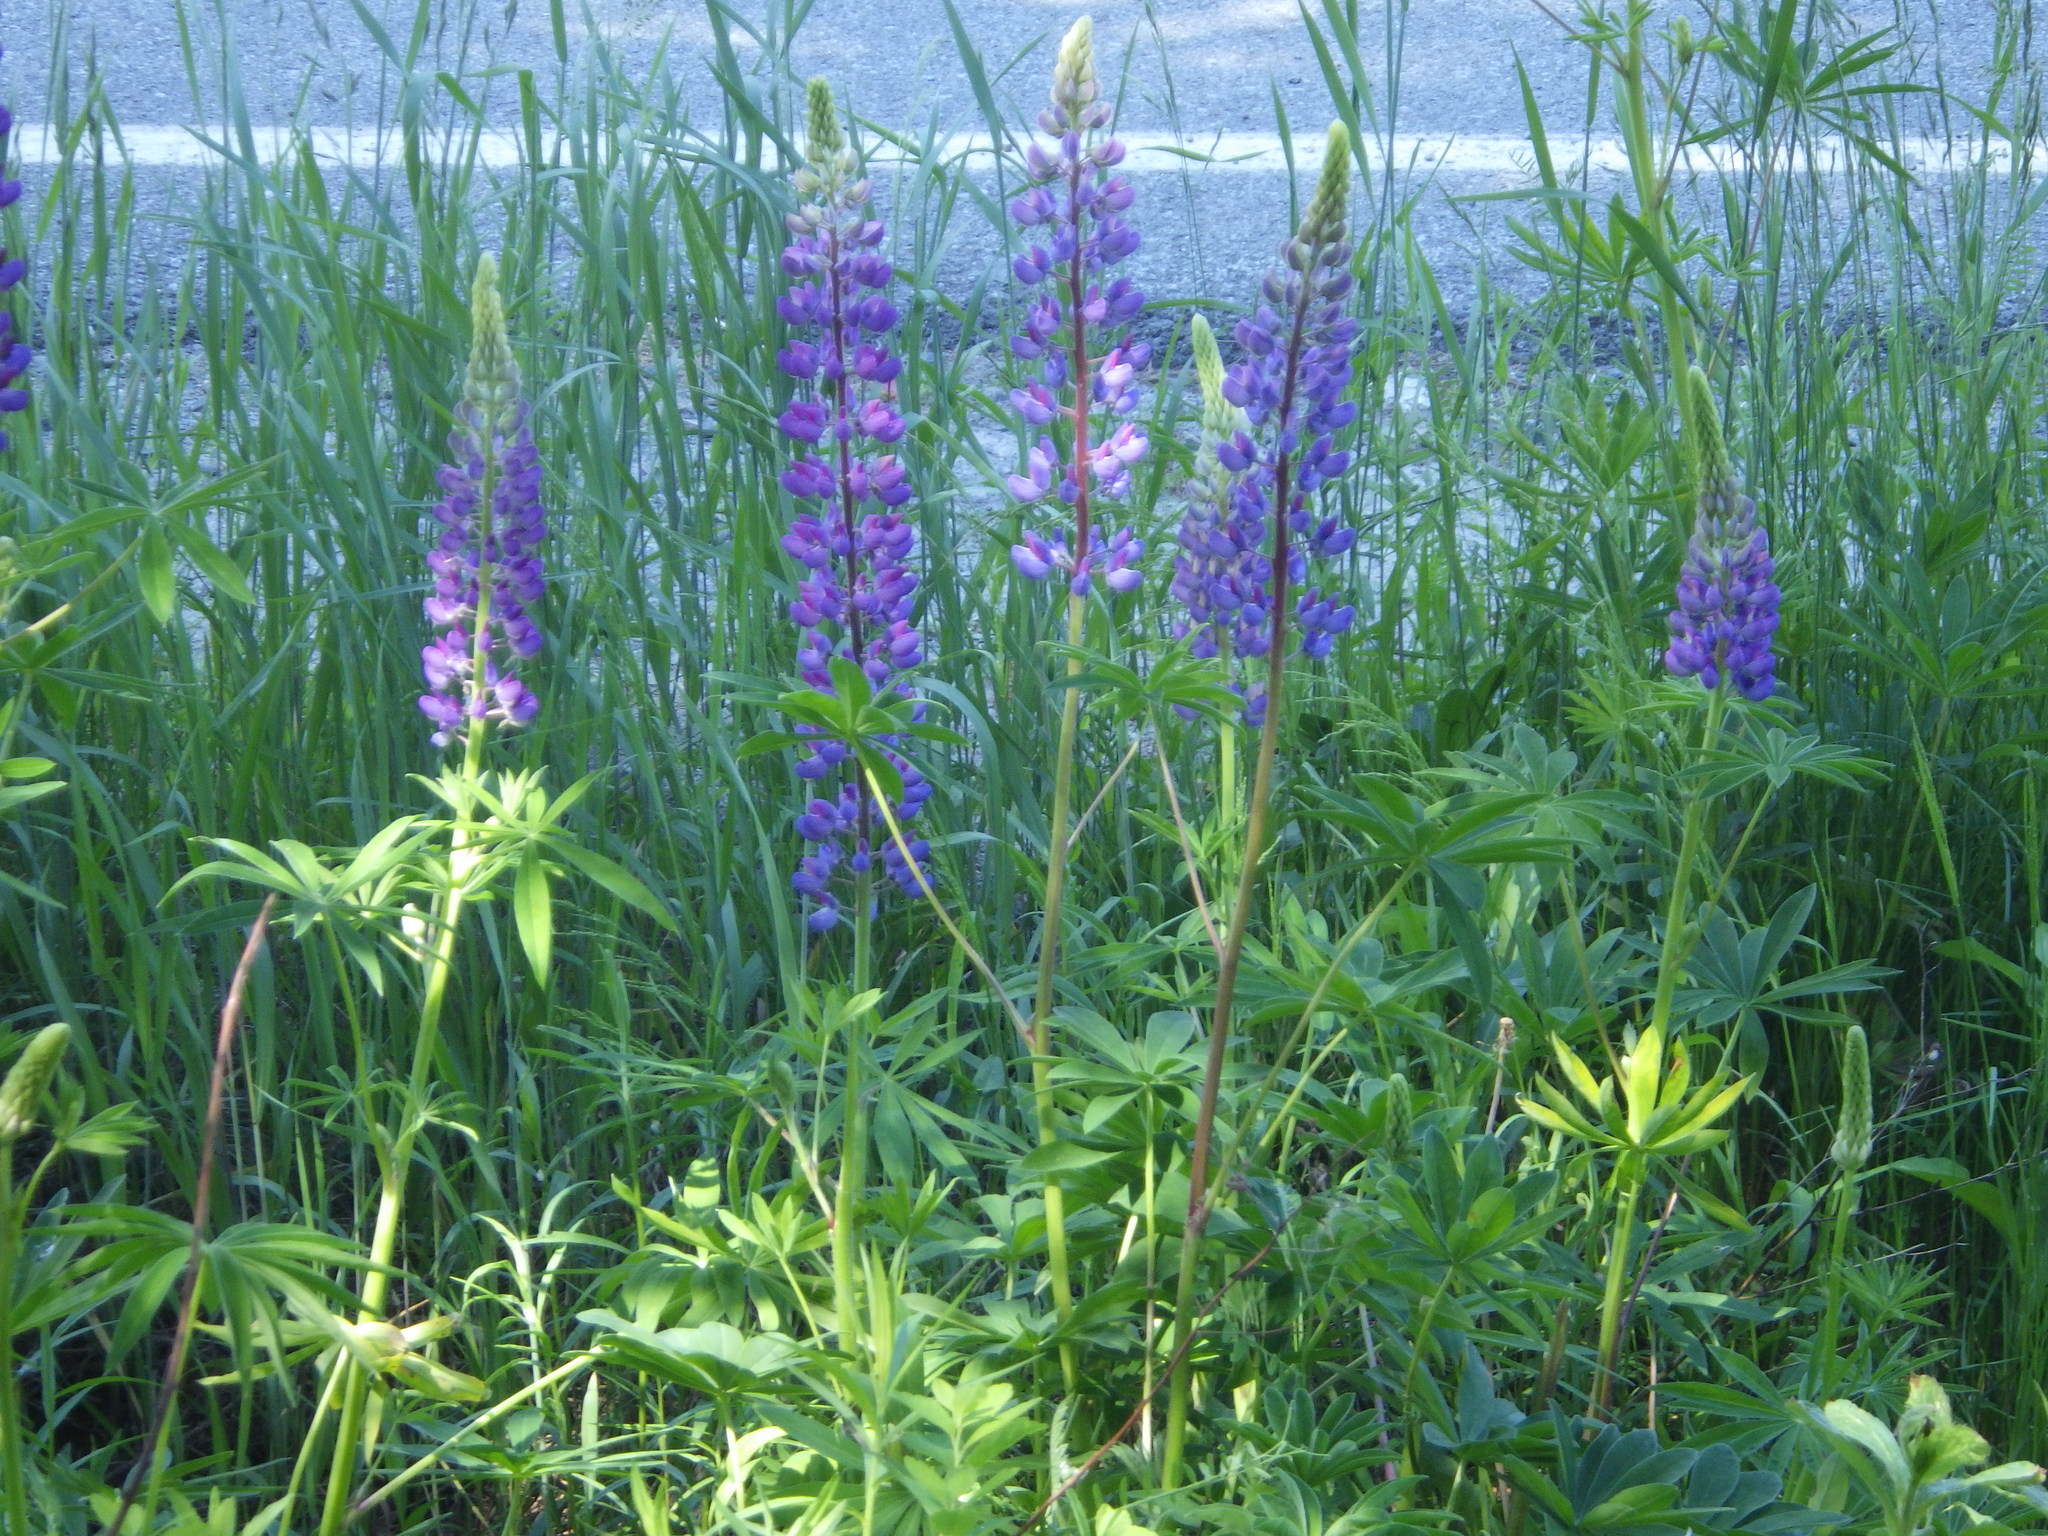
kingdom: Plantae
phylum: Tracheophyta
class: Magnoliopsida
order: Fabales
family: Fabaceae
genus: Lupinus
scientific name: Lupinus polyphyllus
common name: Garden lupin
